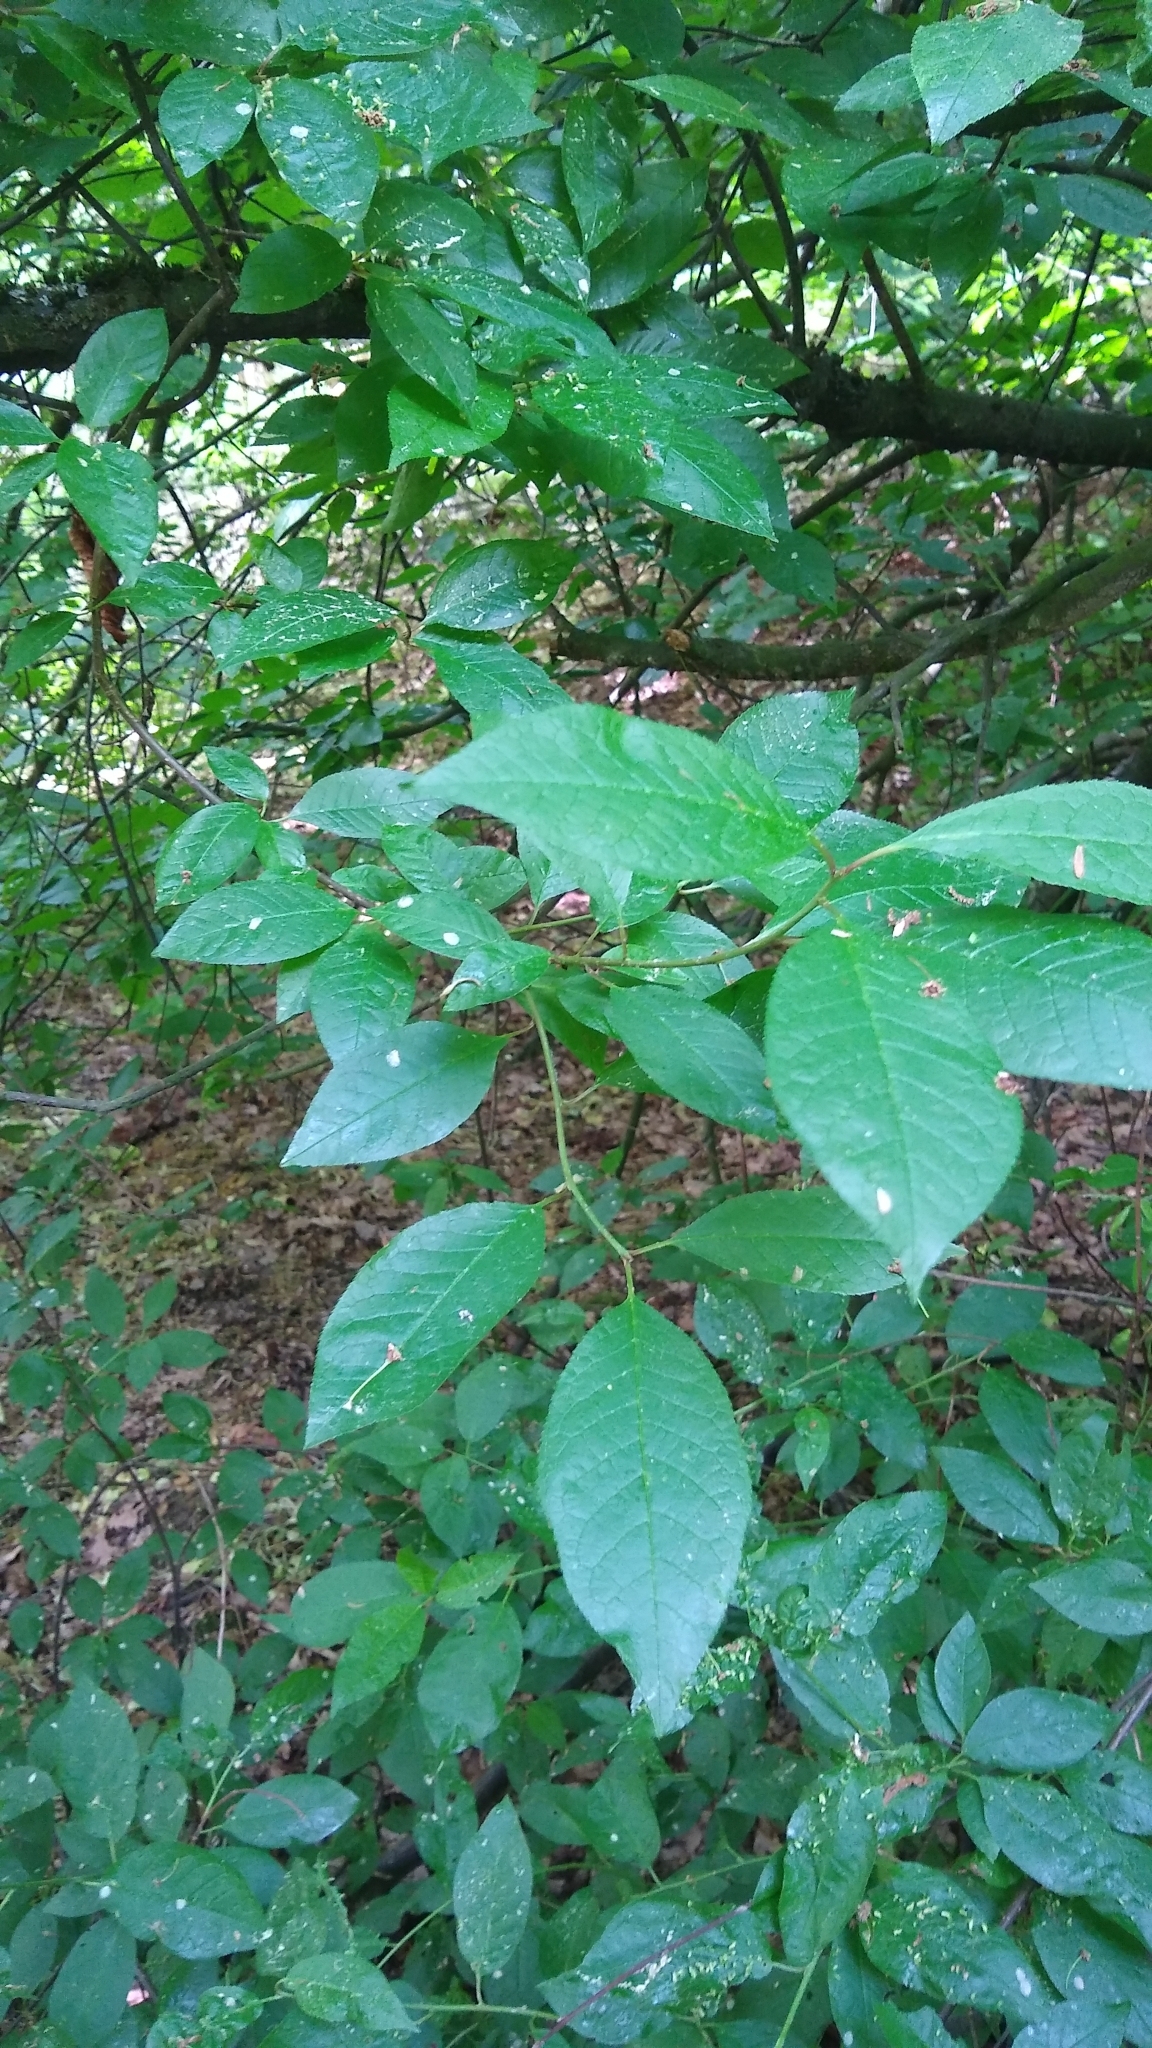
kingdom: Plantae
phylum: Tracheophyta
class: Magnoliopsida
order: Rosales
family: Rosaceae
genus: Prunus
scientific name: Prunus padus
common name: Bird cherry
